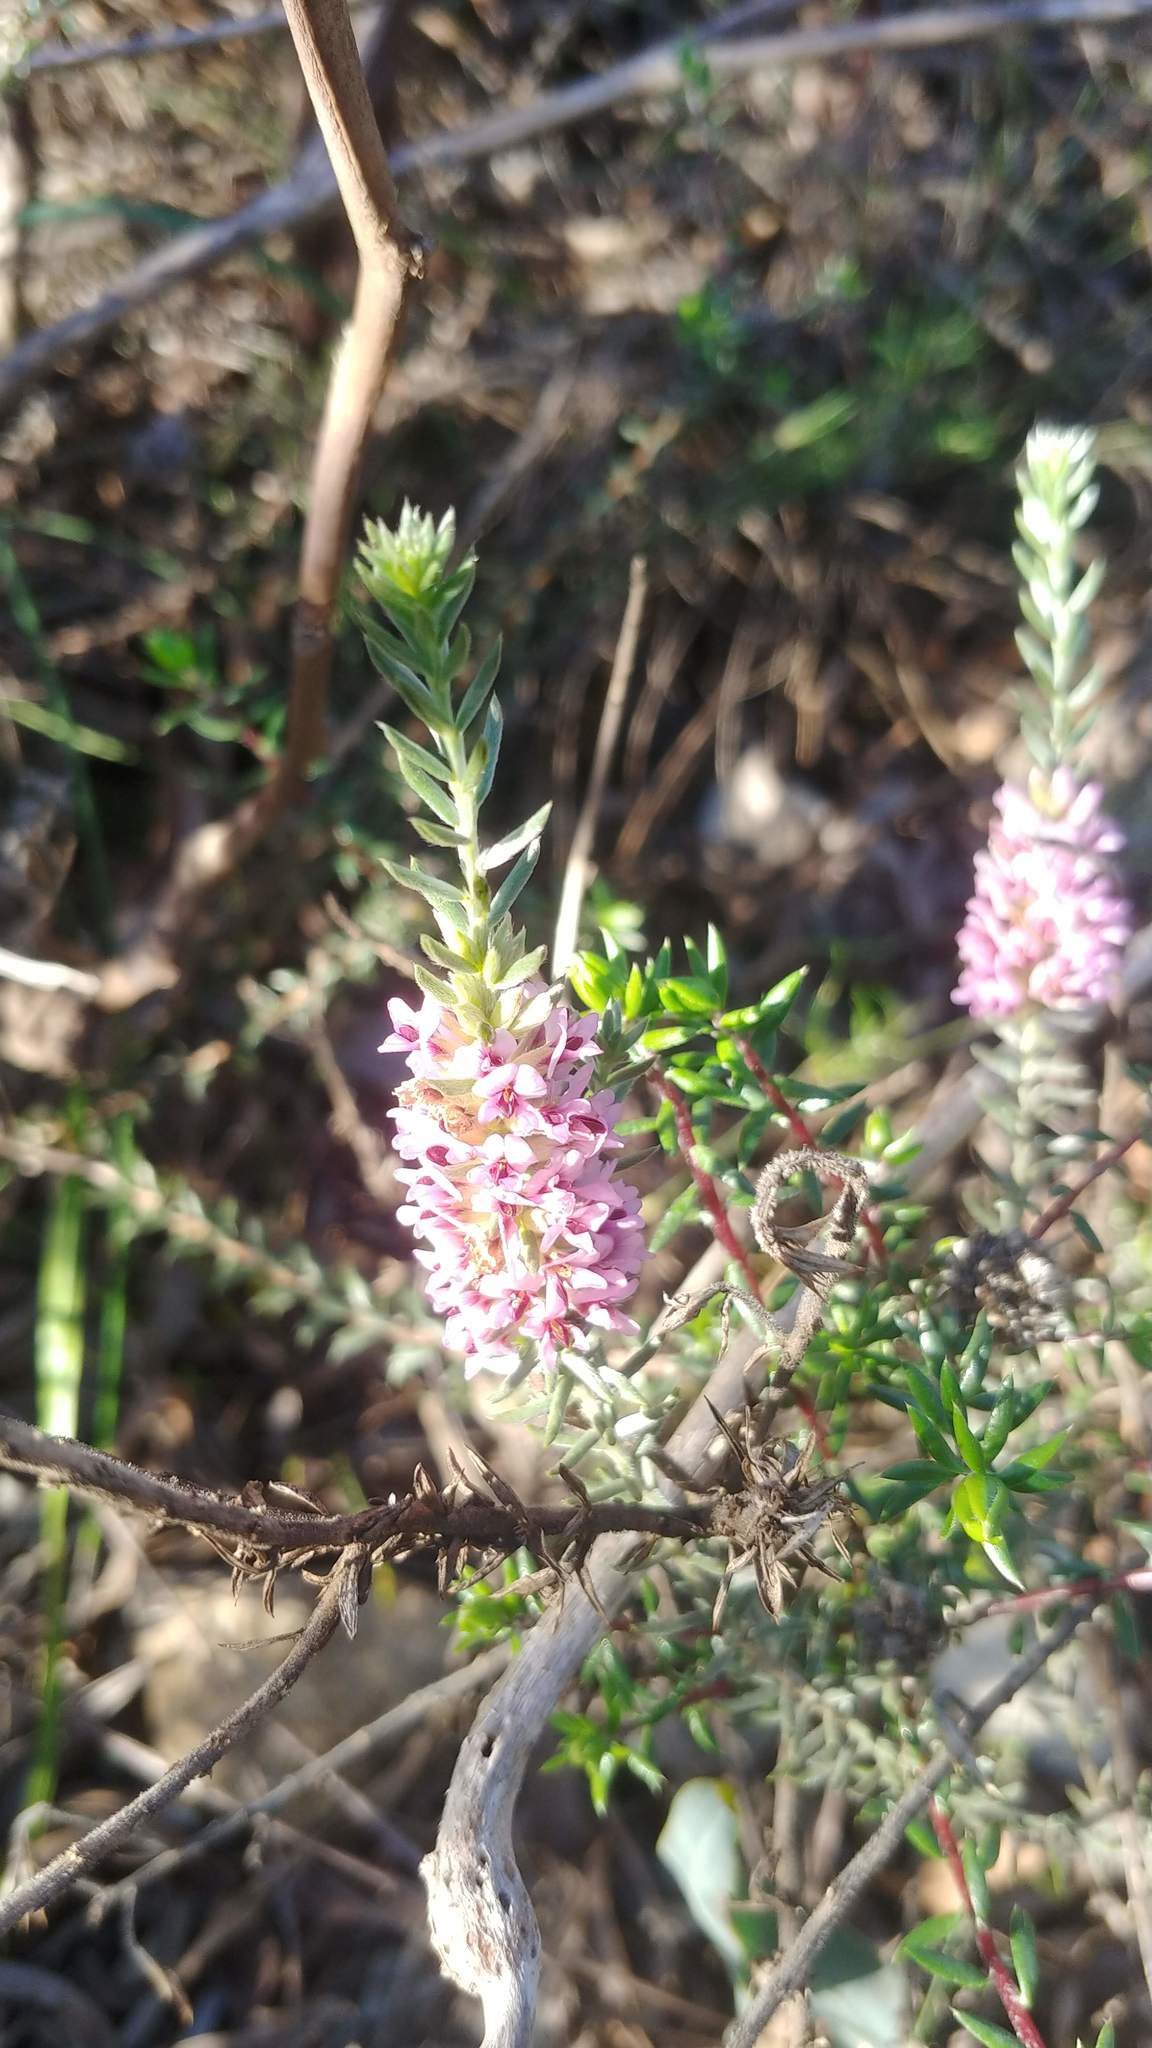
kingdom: Plantae
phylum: Tracheophyta
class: Magnoliopsida
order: Fabales
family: Fabaceae
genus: Amphithalea
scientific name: Amphithalea ericifolia
